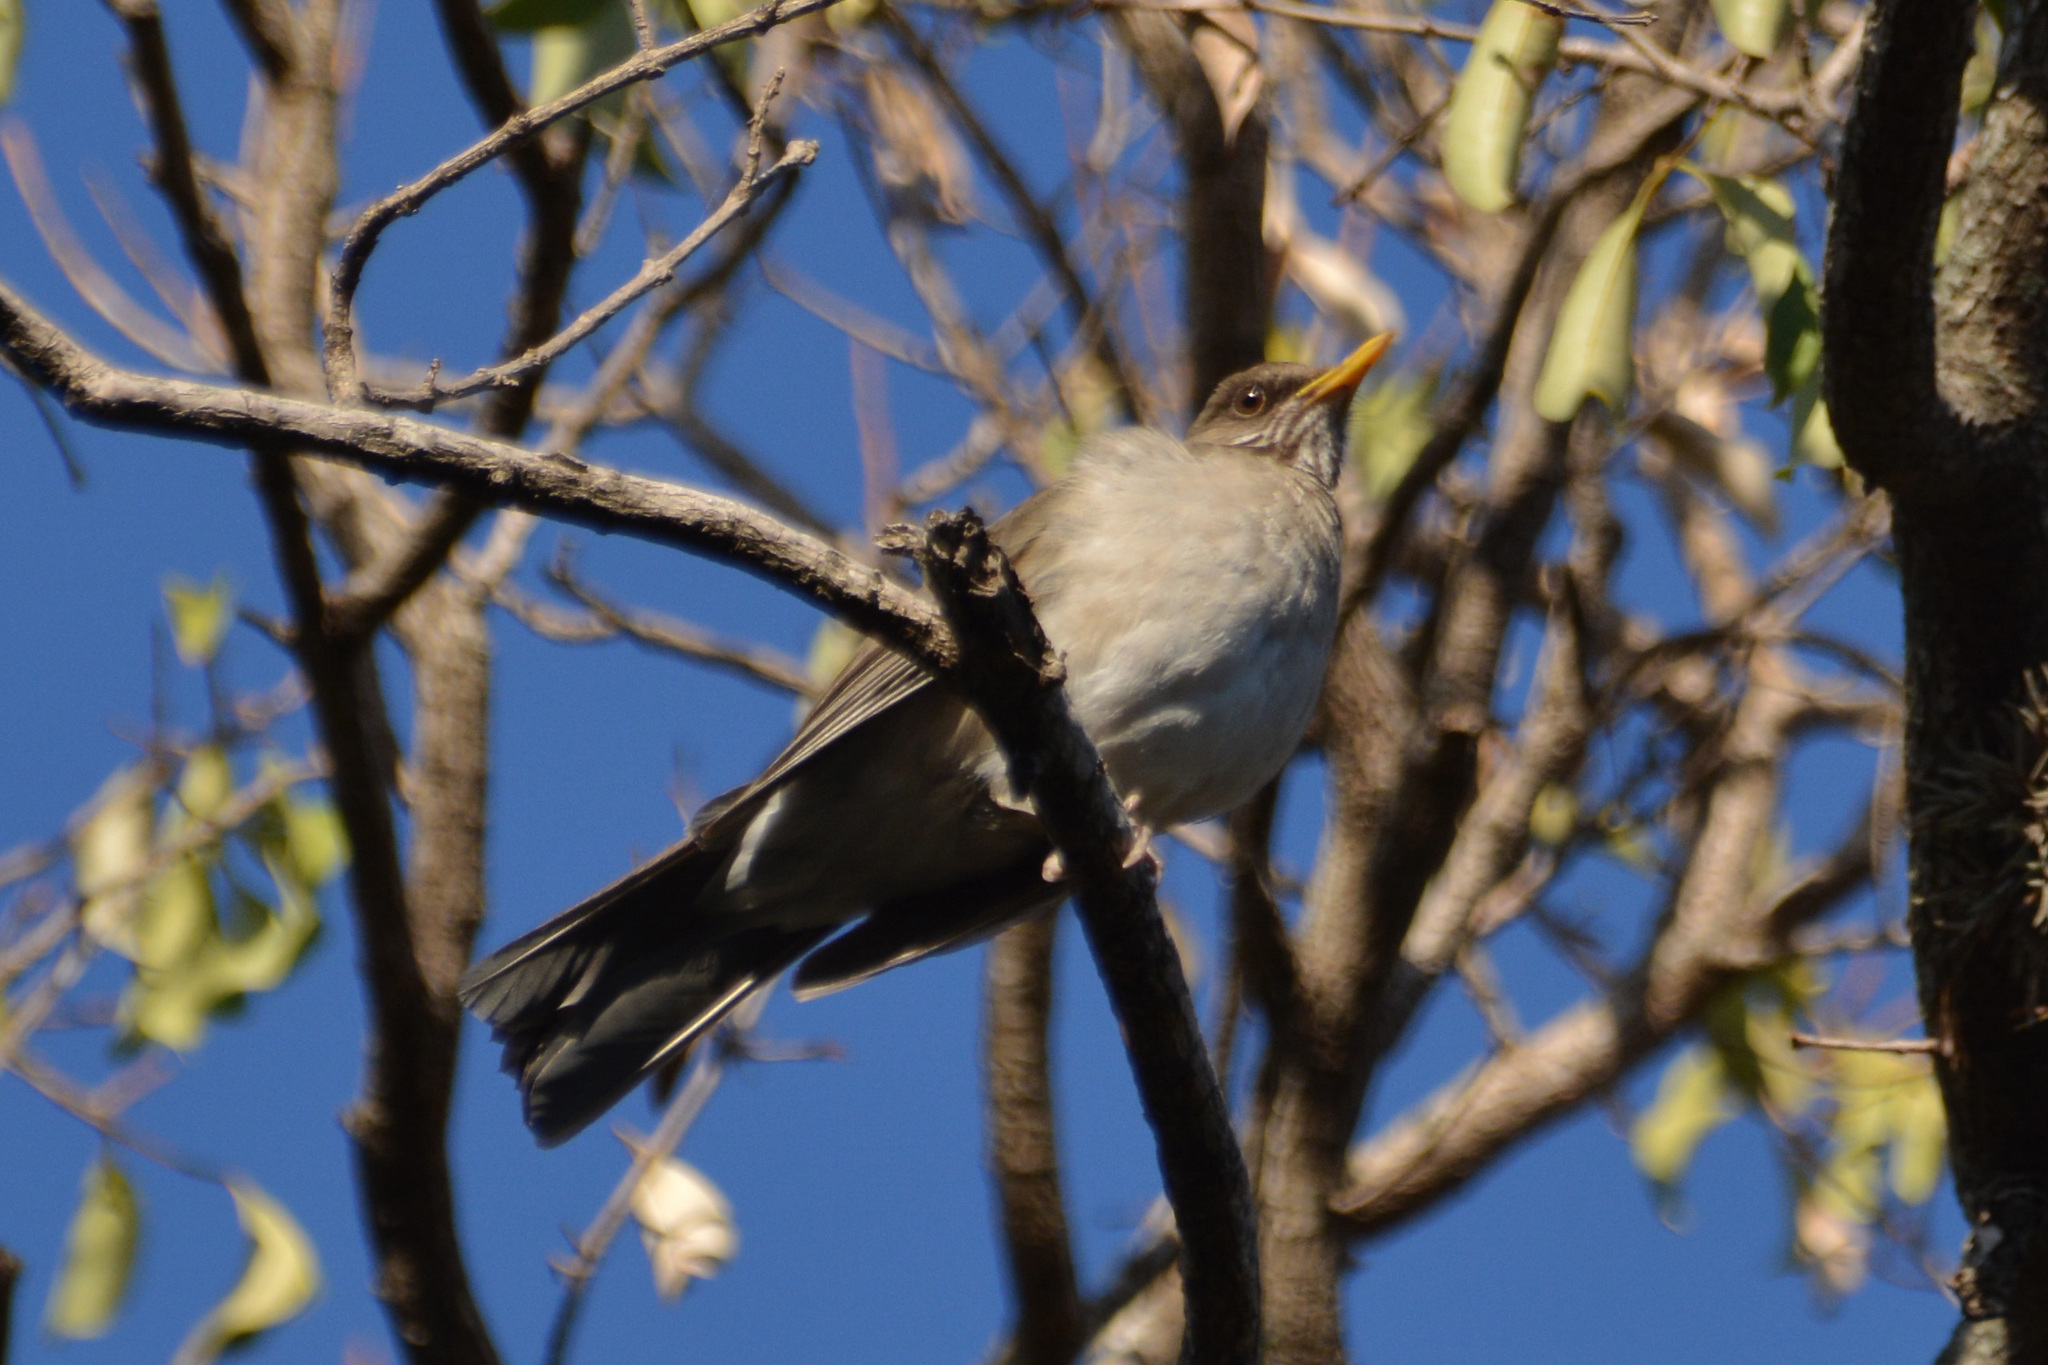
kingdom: Animalia
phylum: Chordata
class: Aves
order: Passeriformes
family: Turdidae
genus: Turdus
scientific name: Turdus amaurochalinus
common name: Creamy-bellied thrush
